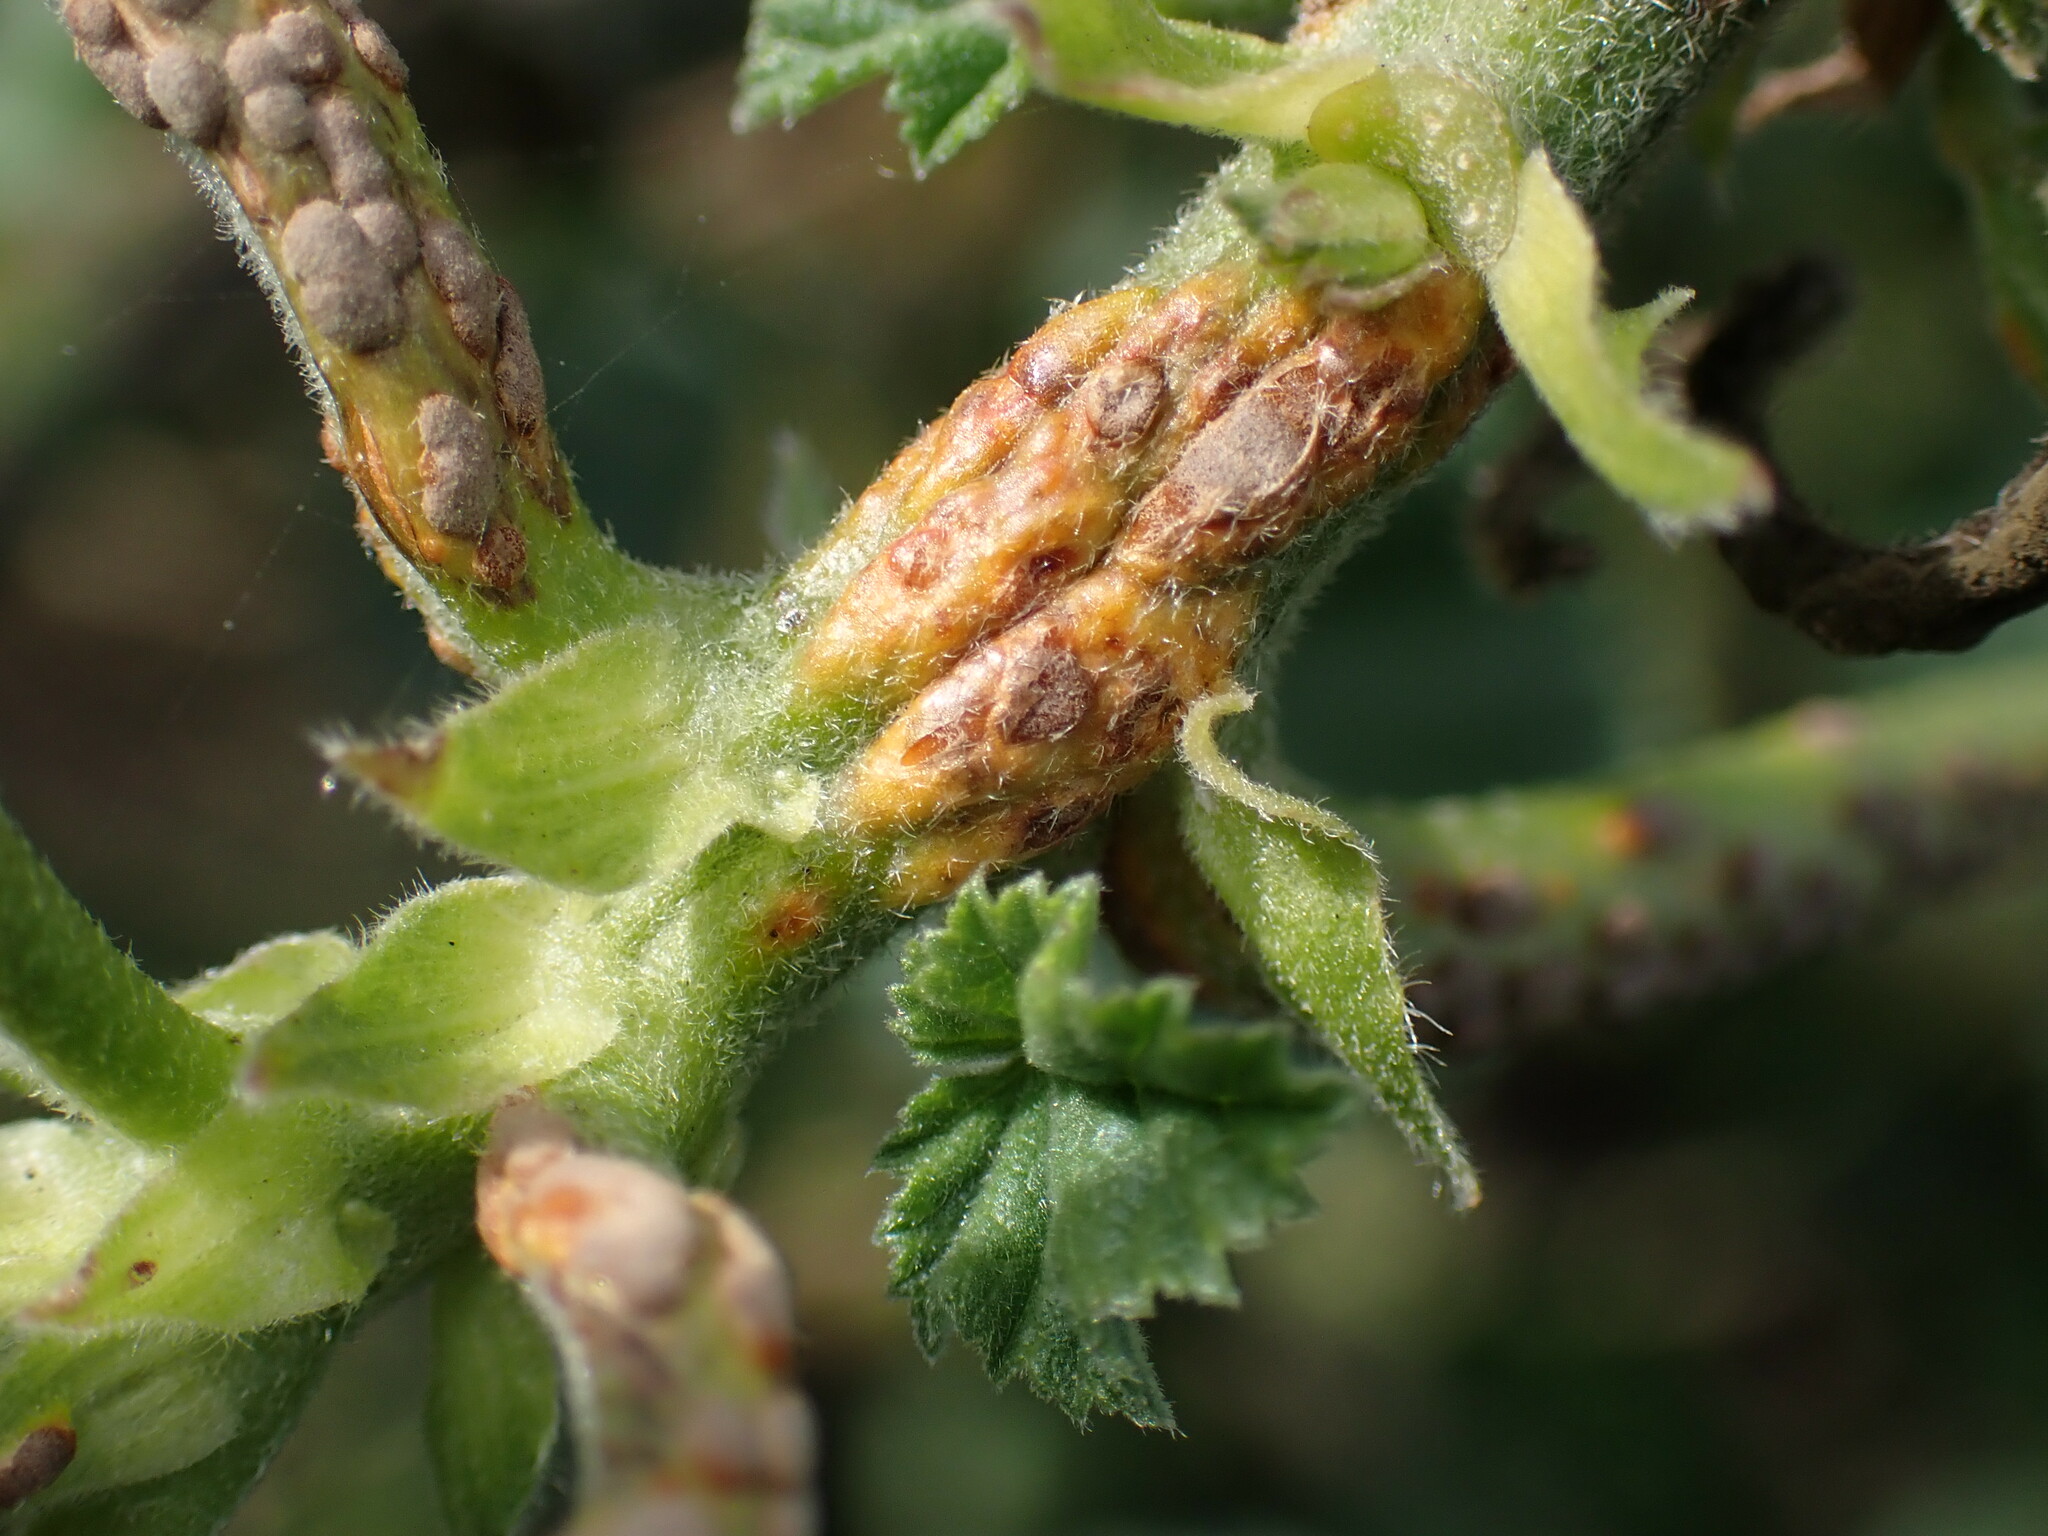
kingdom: Fungi
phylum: Basidiomycota
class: Pucciniomycetes
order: Pucciniales
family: Pucciniaceae
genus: Puccinia
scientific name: Puccinia malvacearum
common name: Hollyhock rust
